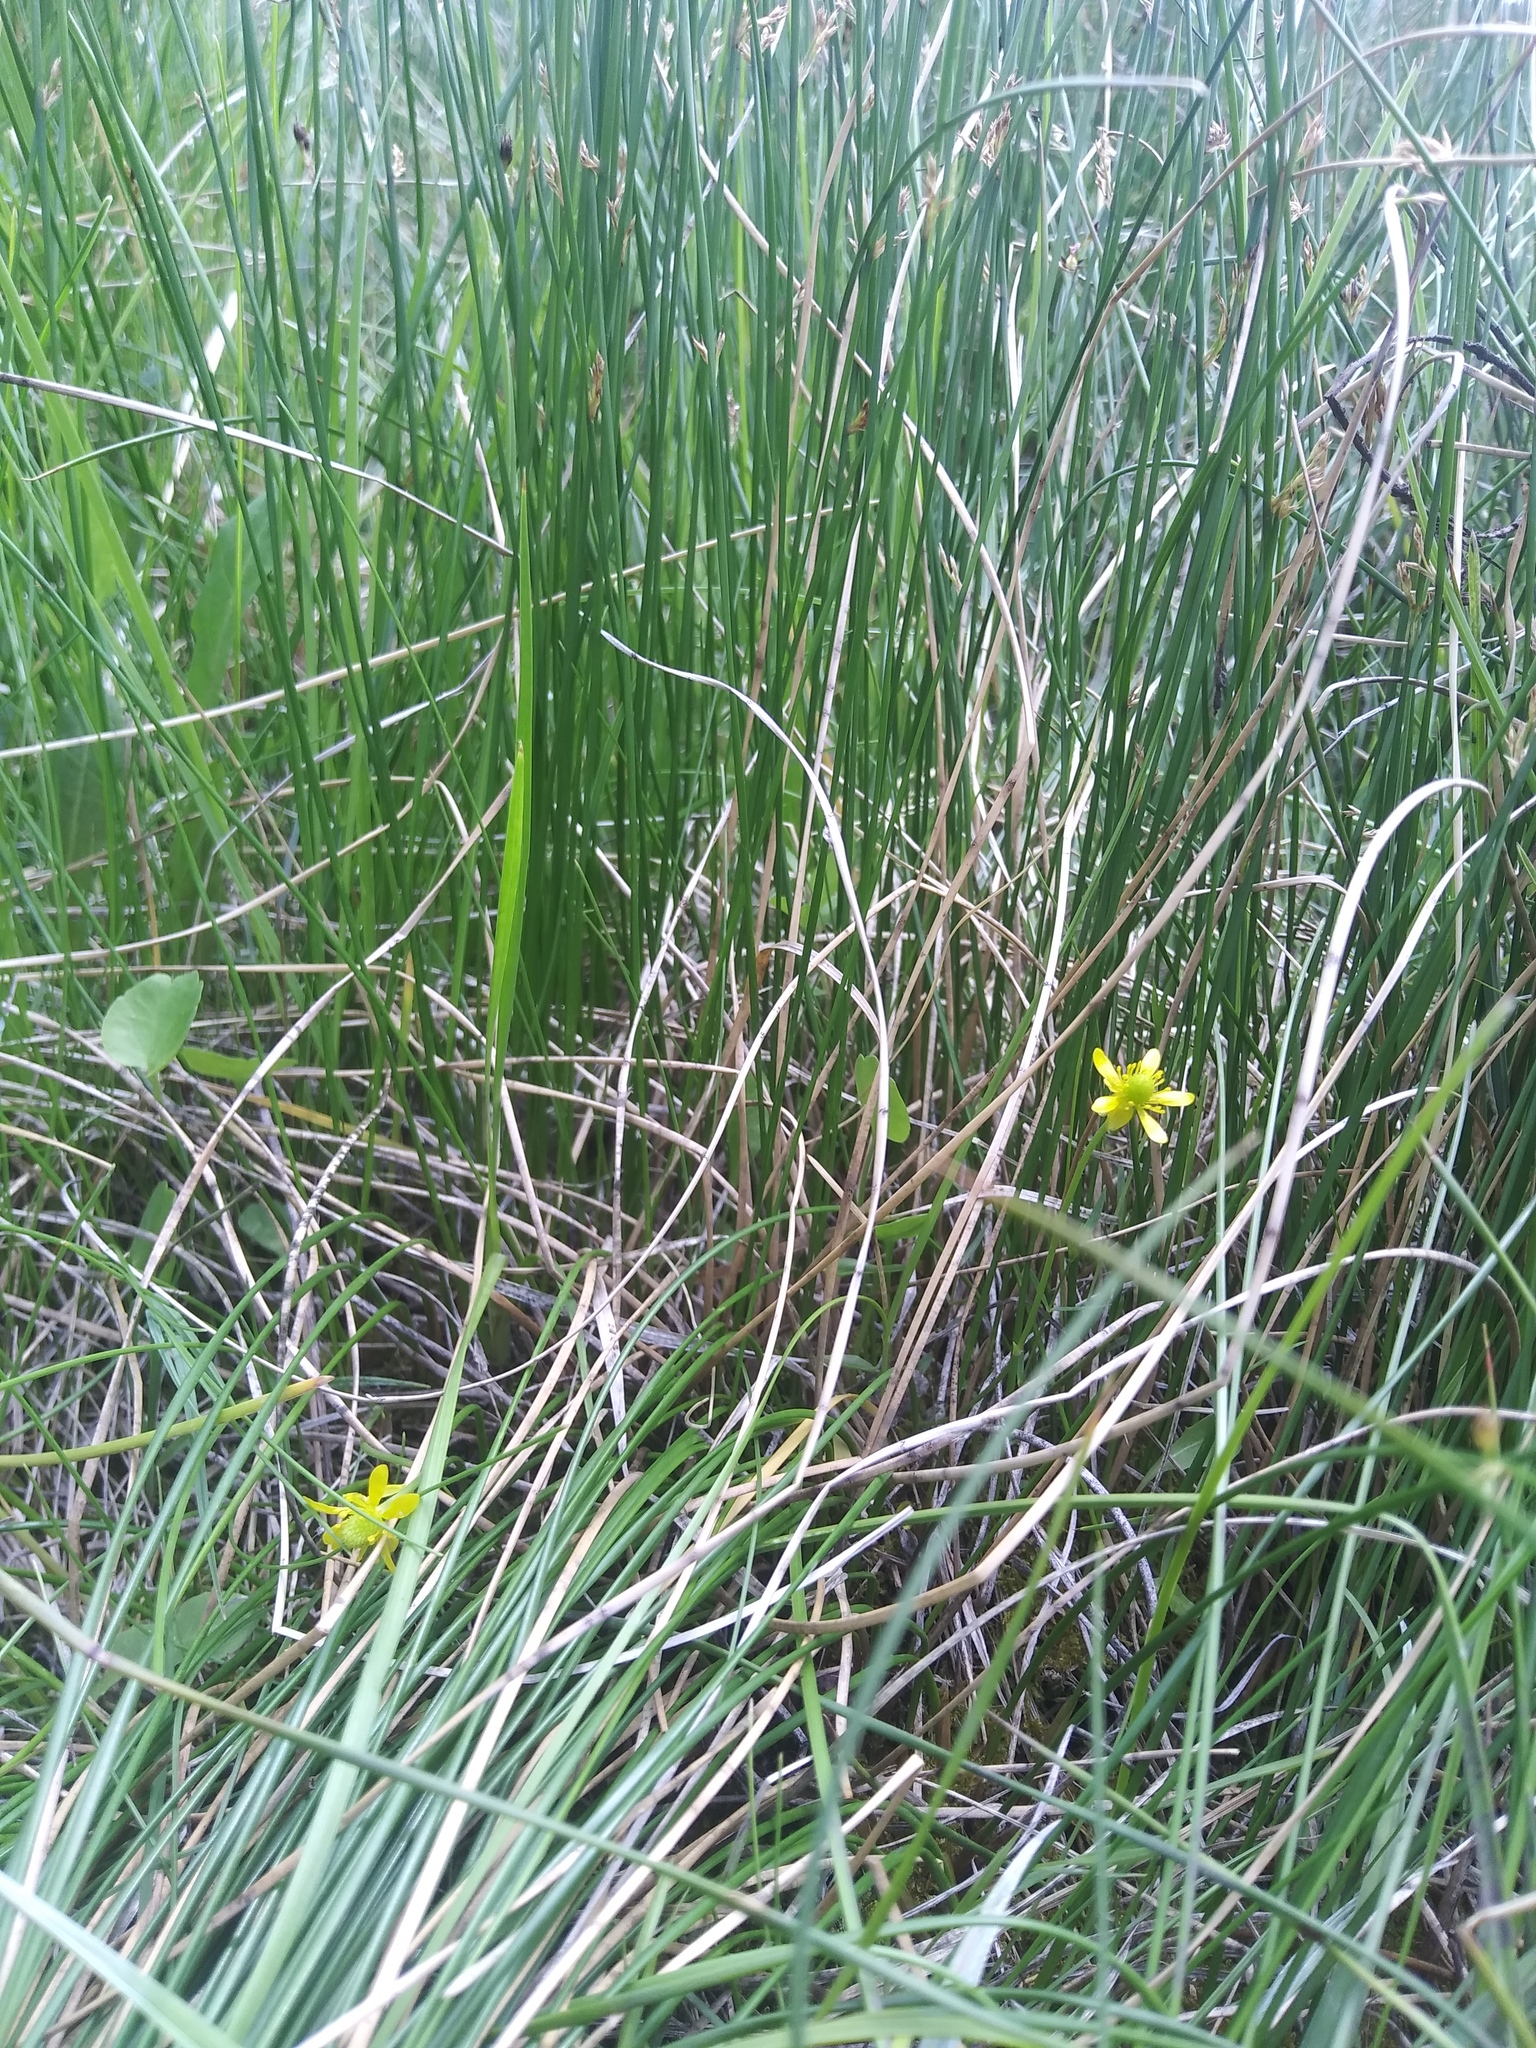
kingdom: Plantae
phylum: Tracheophyta
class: Magnoliopsida
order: Ranunculales
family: Ranunculaceae
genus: Halerpestes
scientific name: Halerpestes cymbalaria
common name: Seaside crowfoot
